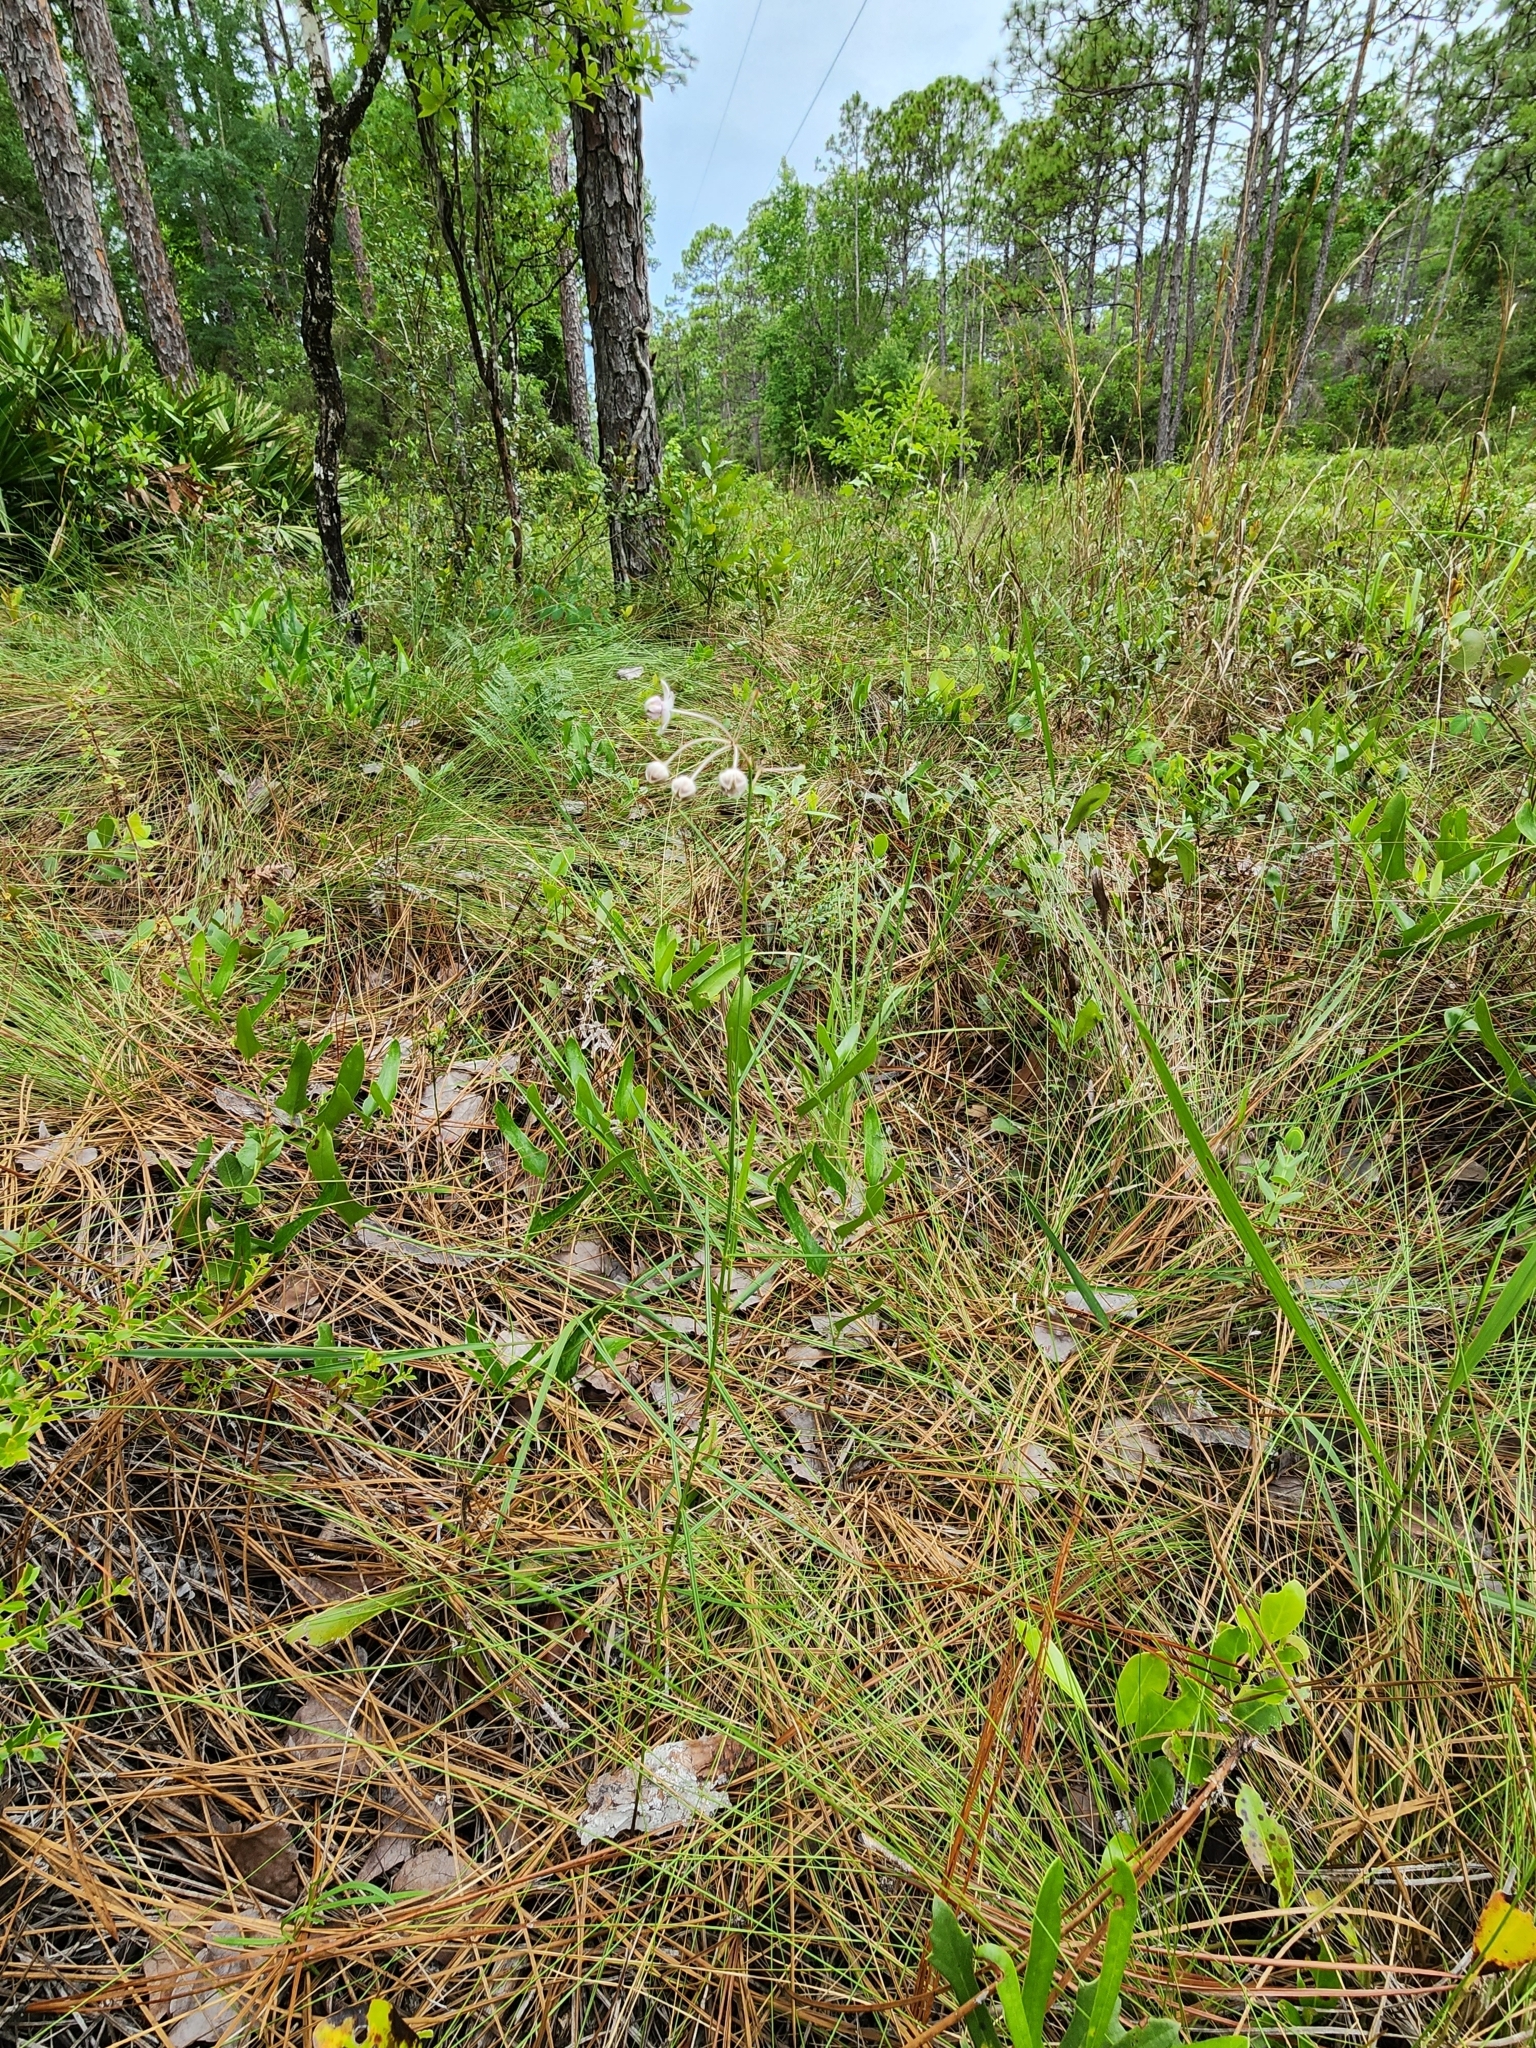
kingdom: Plantae
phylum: Tracheophyta
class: Magnoliopsida
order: Gentianales
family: Apocynaceae
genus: Asclepias
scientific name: Asclepias cinerea
